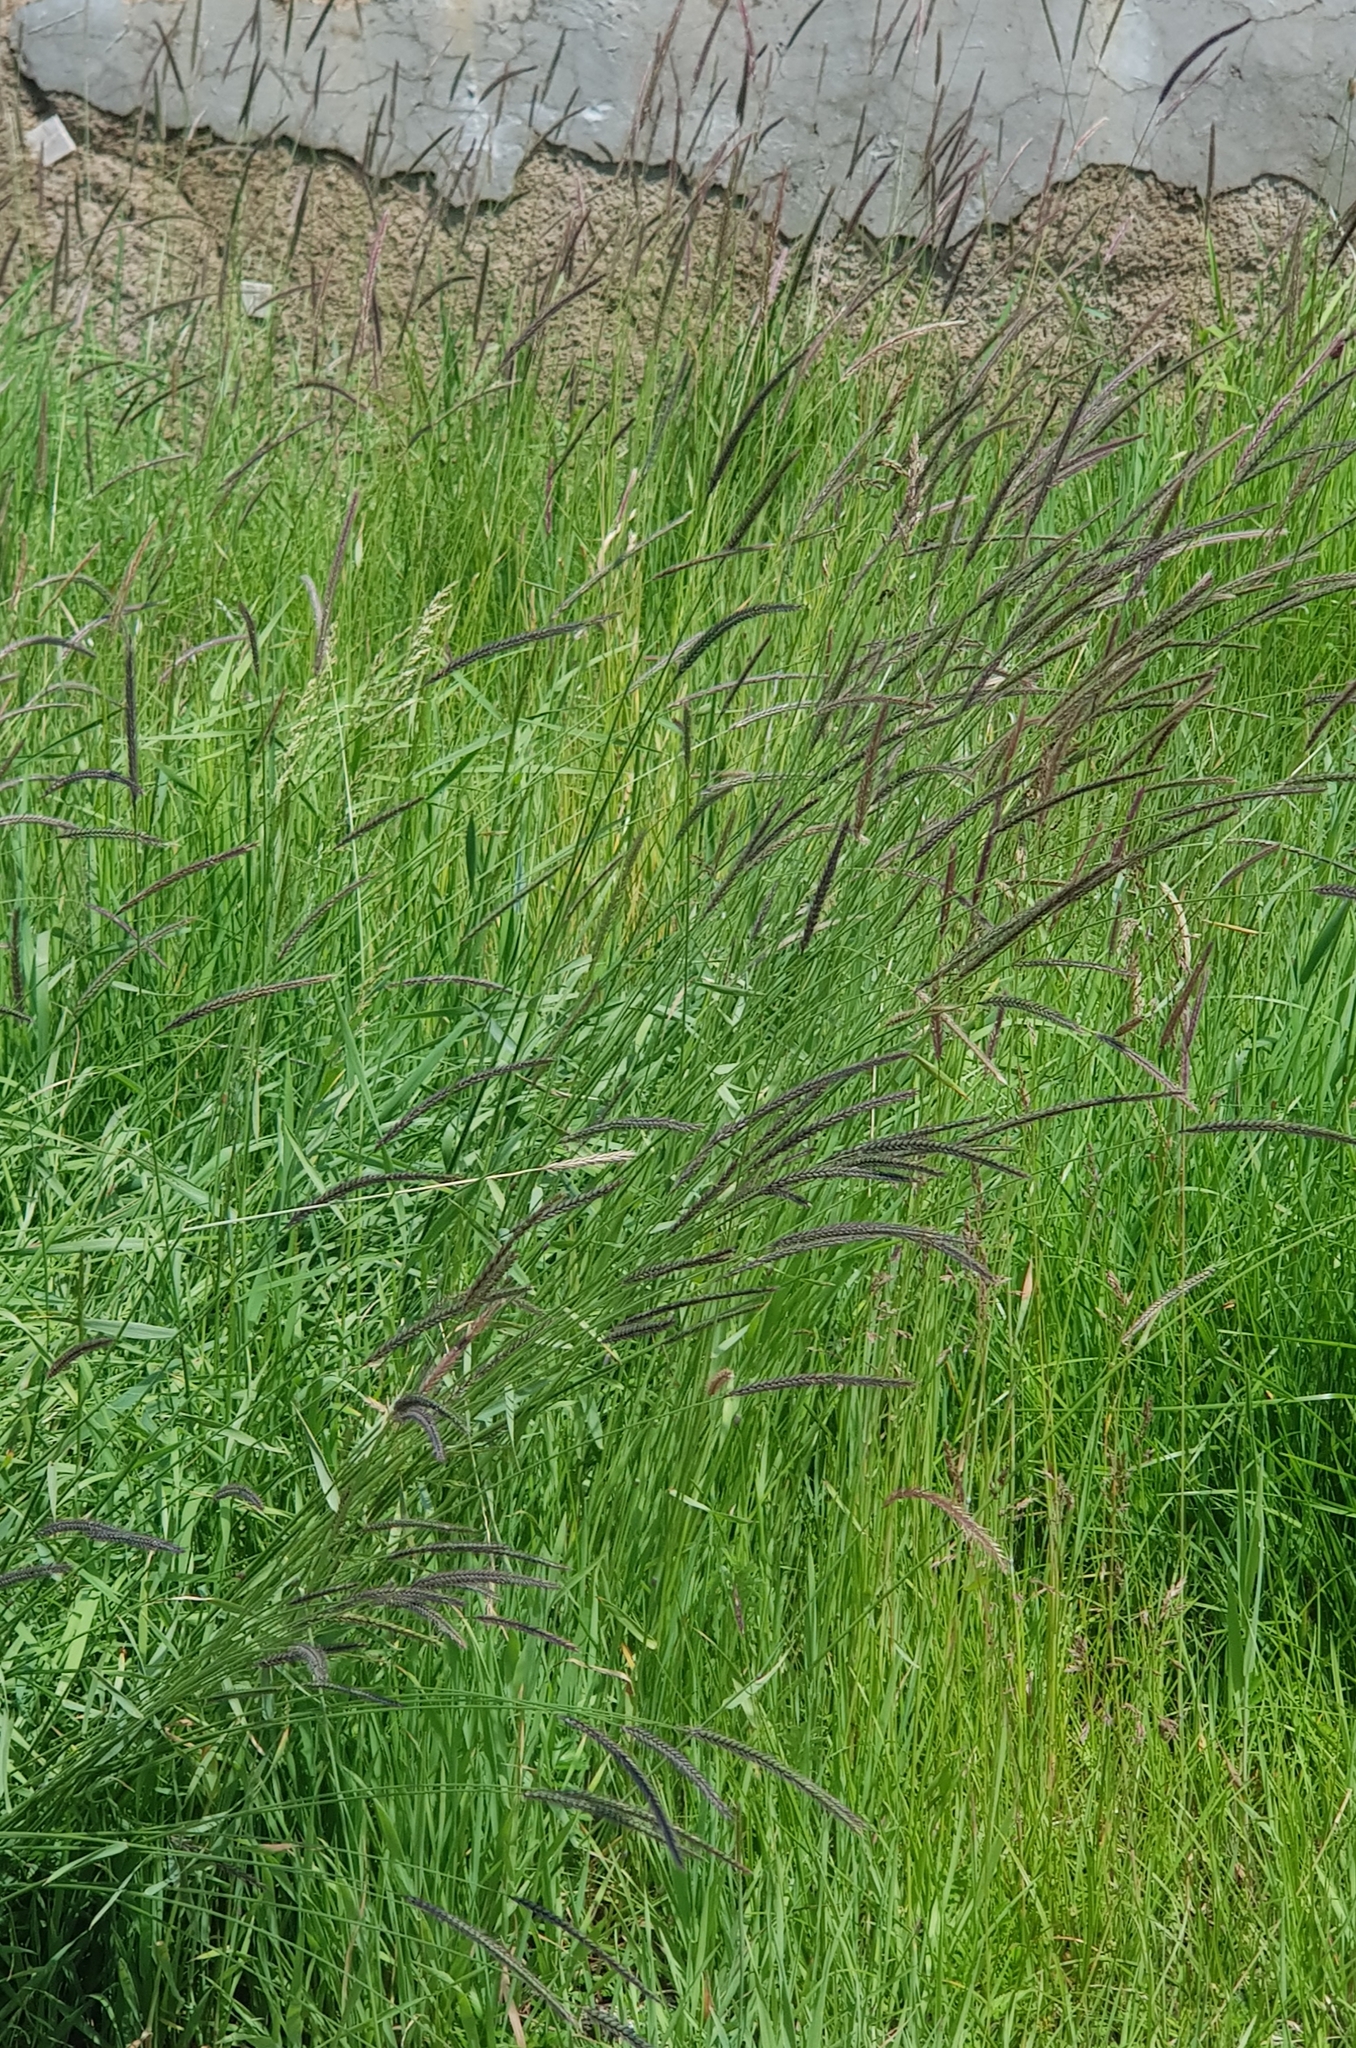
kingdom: Plantae
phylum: Tracheophyta
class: Liliopsida
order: Poales
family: Poaceae
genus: Hordeum
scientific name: Hordeum brevisubulatum
